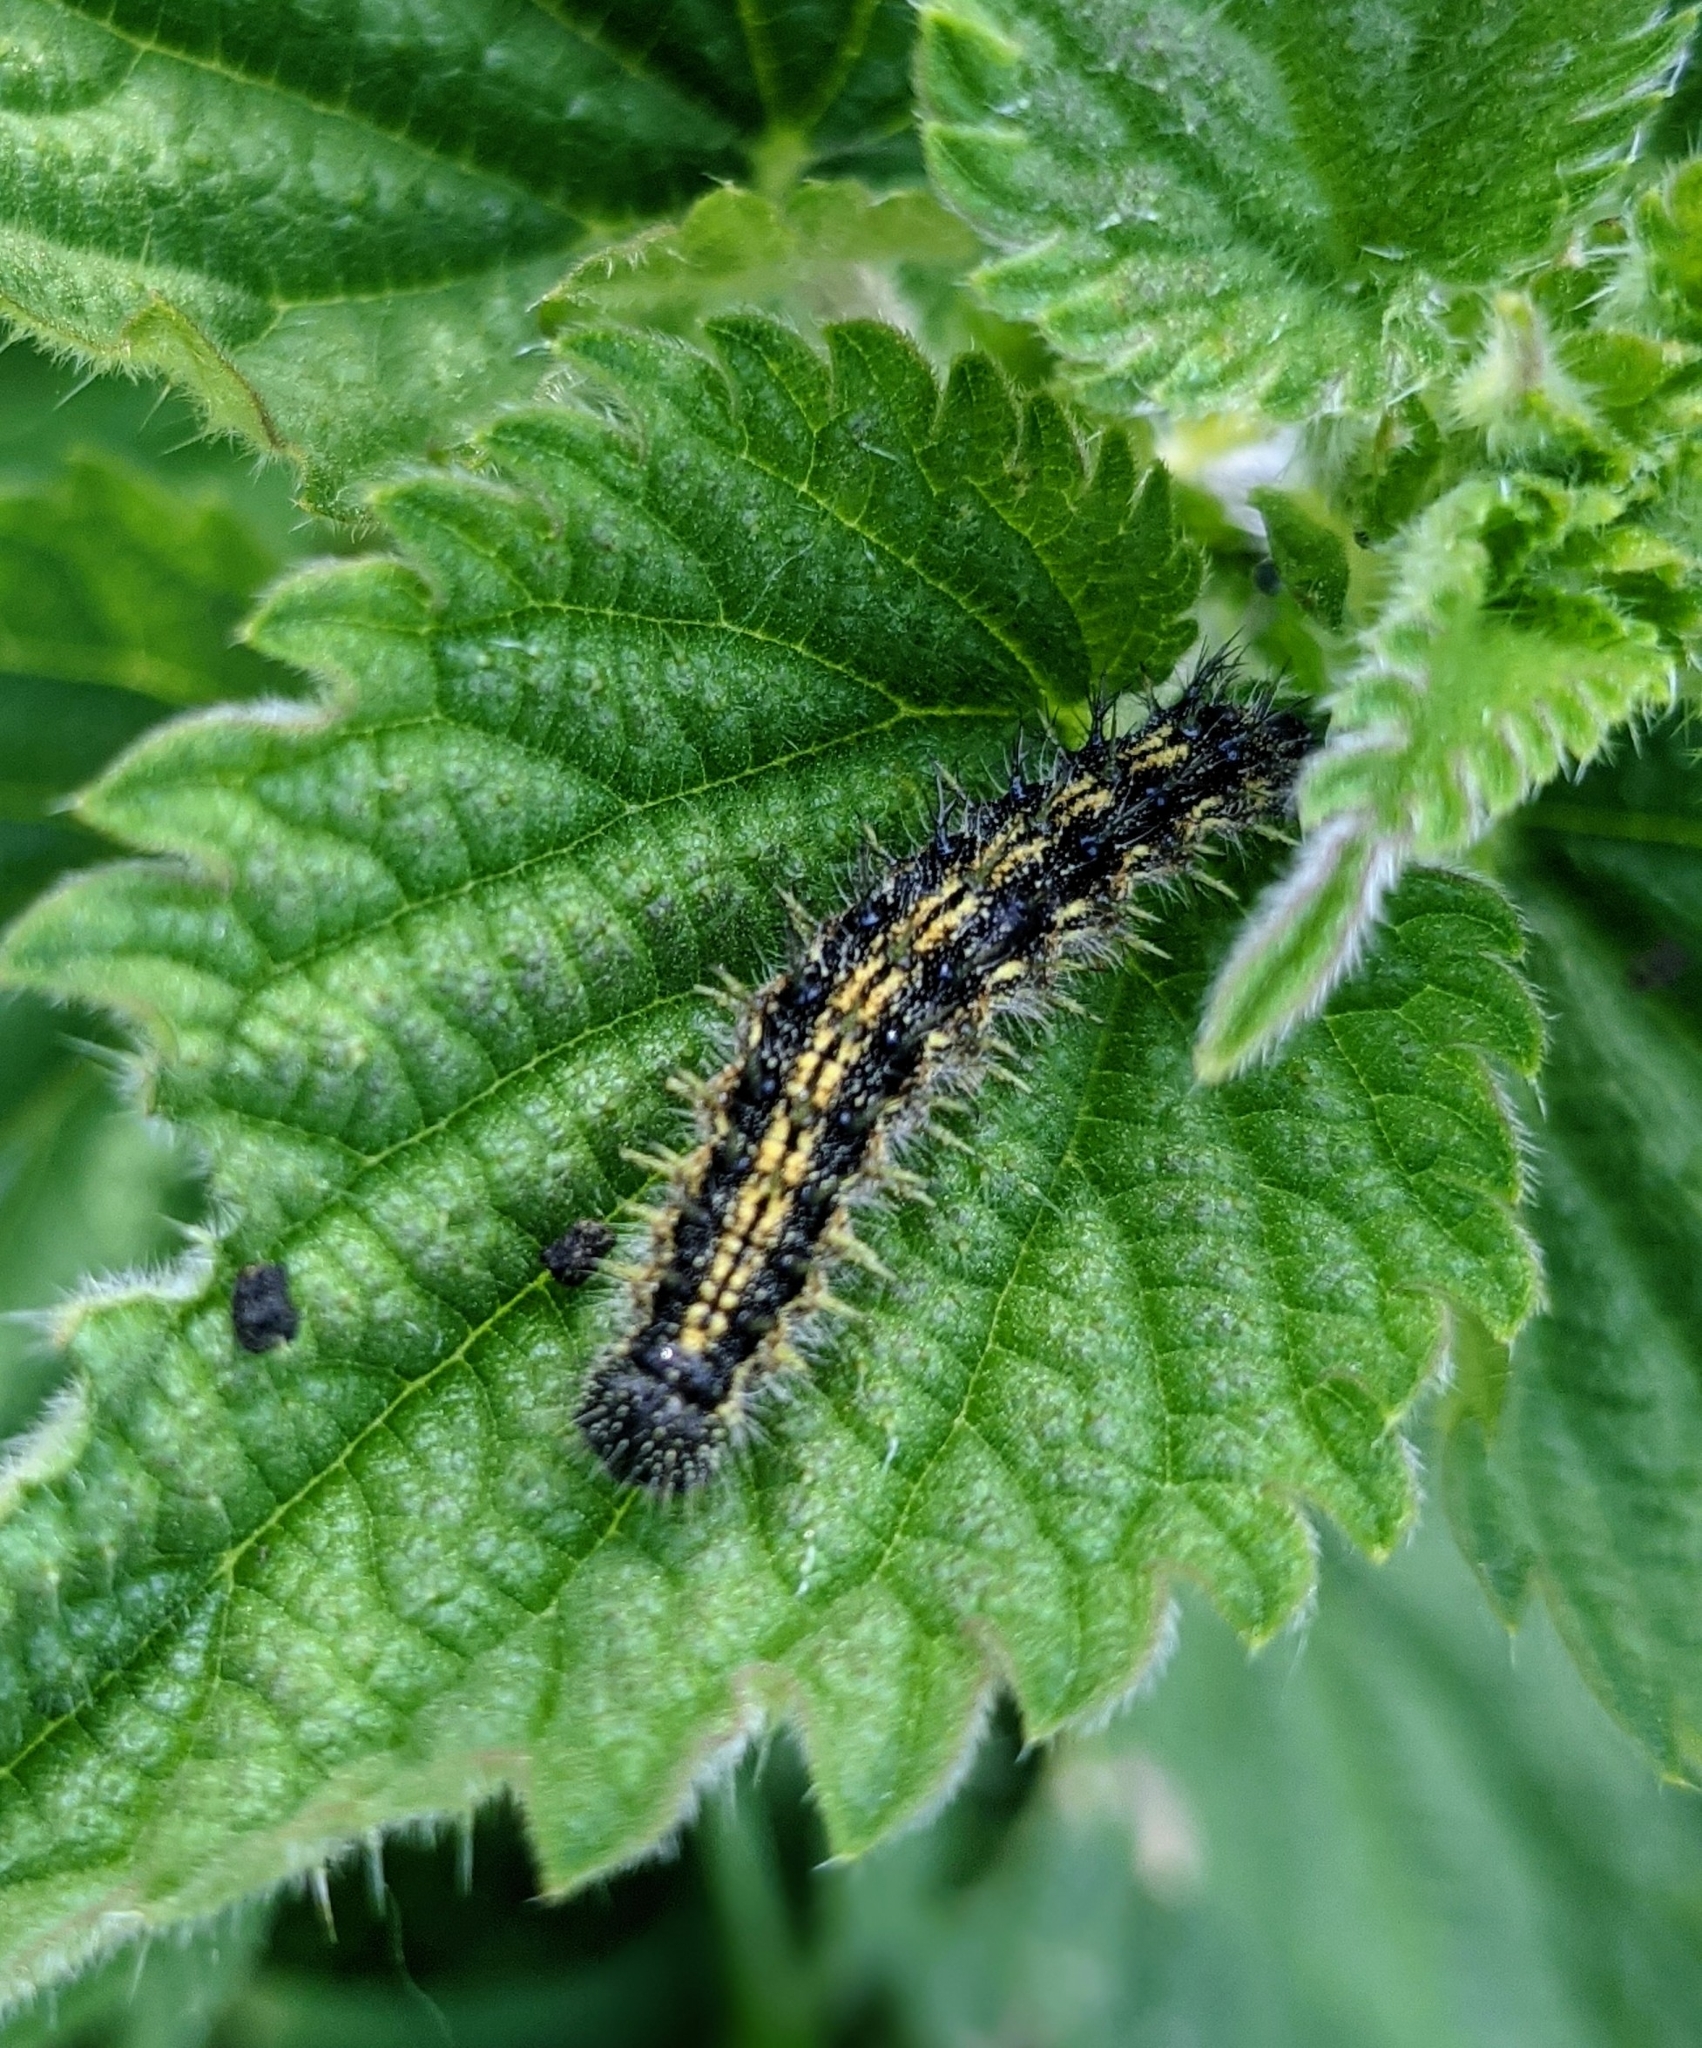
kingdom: Animalia
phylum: Arthropoda
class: Insecta
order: Lepidoptera
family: Nymphalidae
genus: Aglais
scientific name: Aglais urticae
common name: Small tortoiseshell
